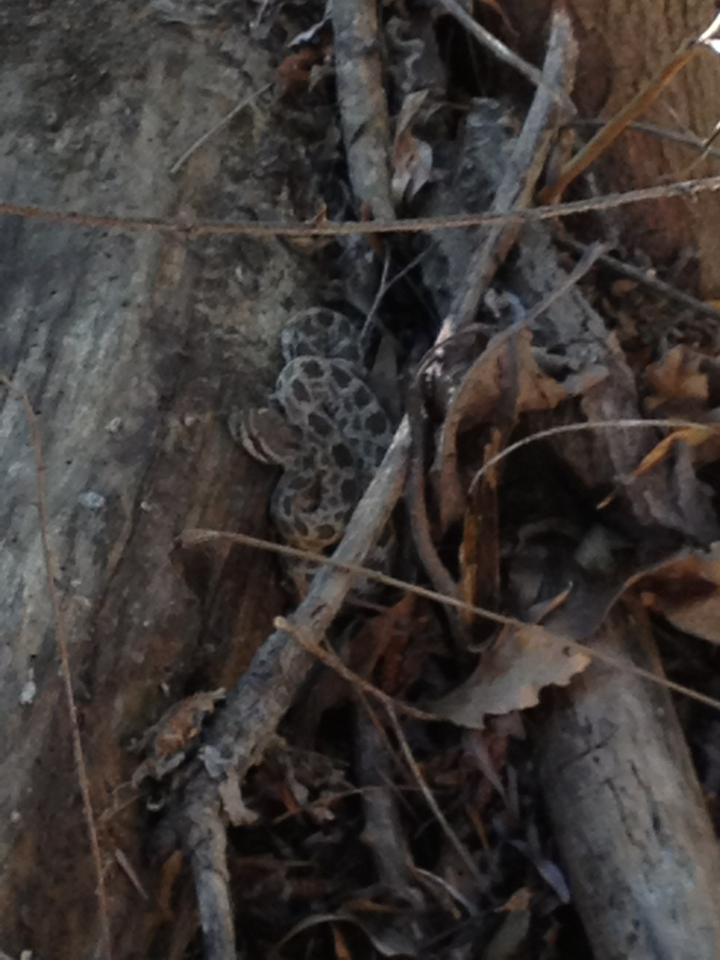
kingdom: Animalia
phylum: Chordata
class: Squamata
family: Viperidae
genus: Crotalus
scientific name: Crotalus oreganus
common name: Abyssus
